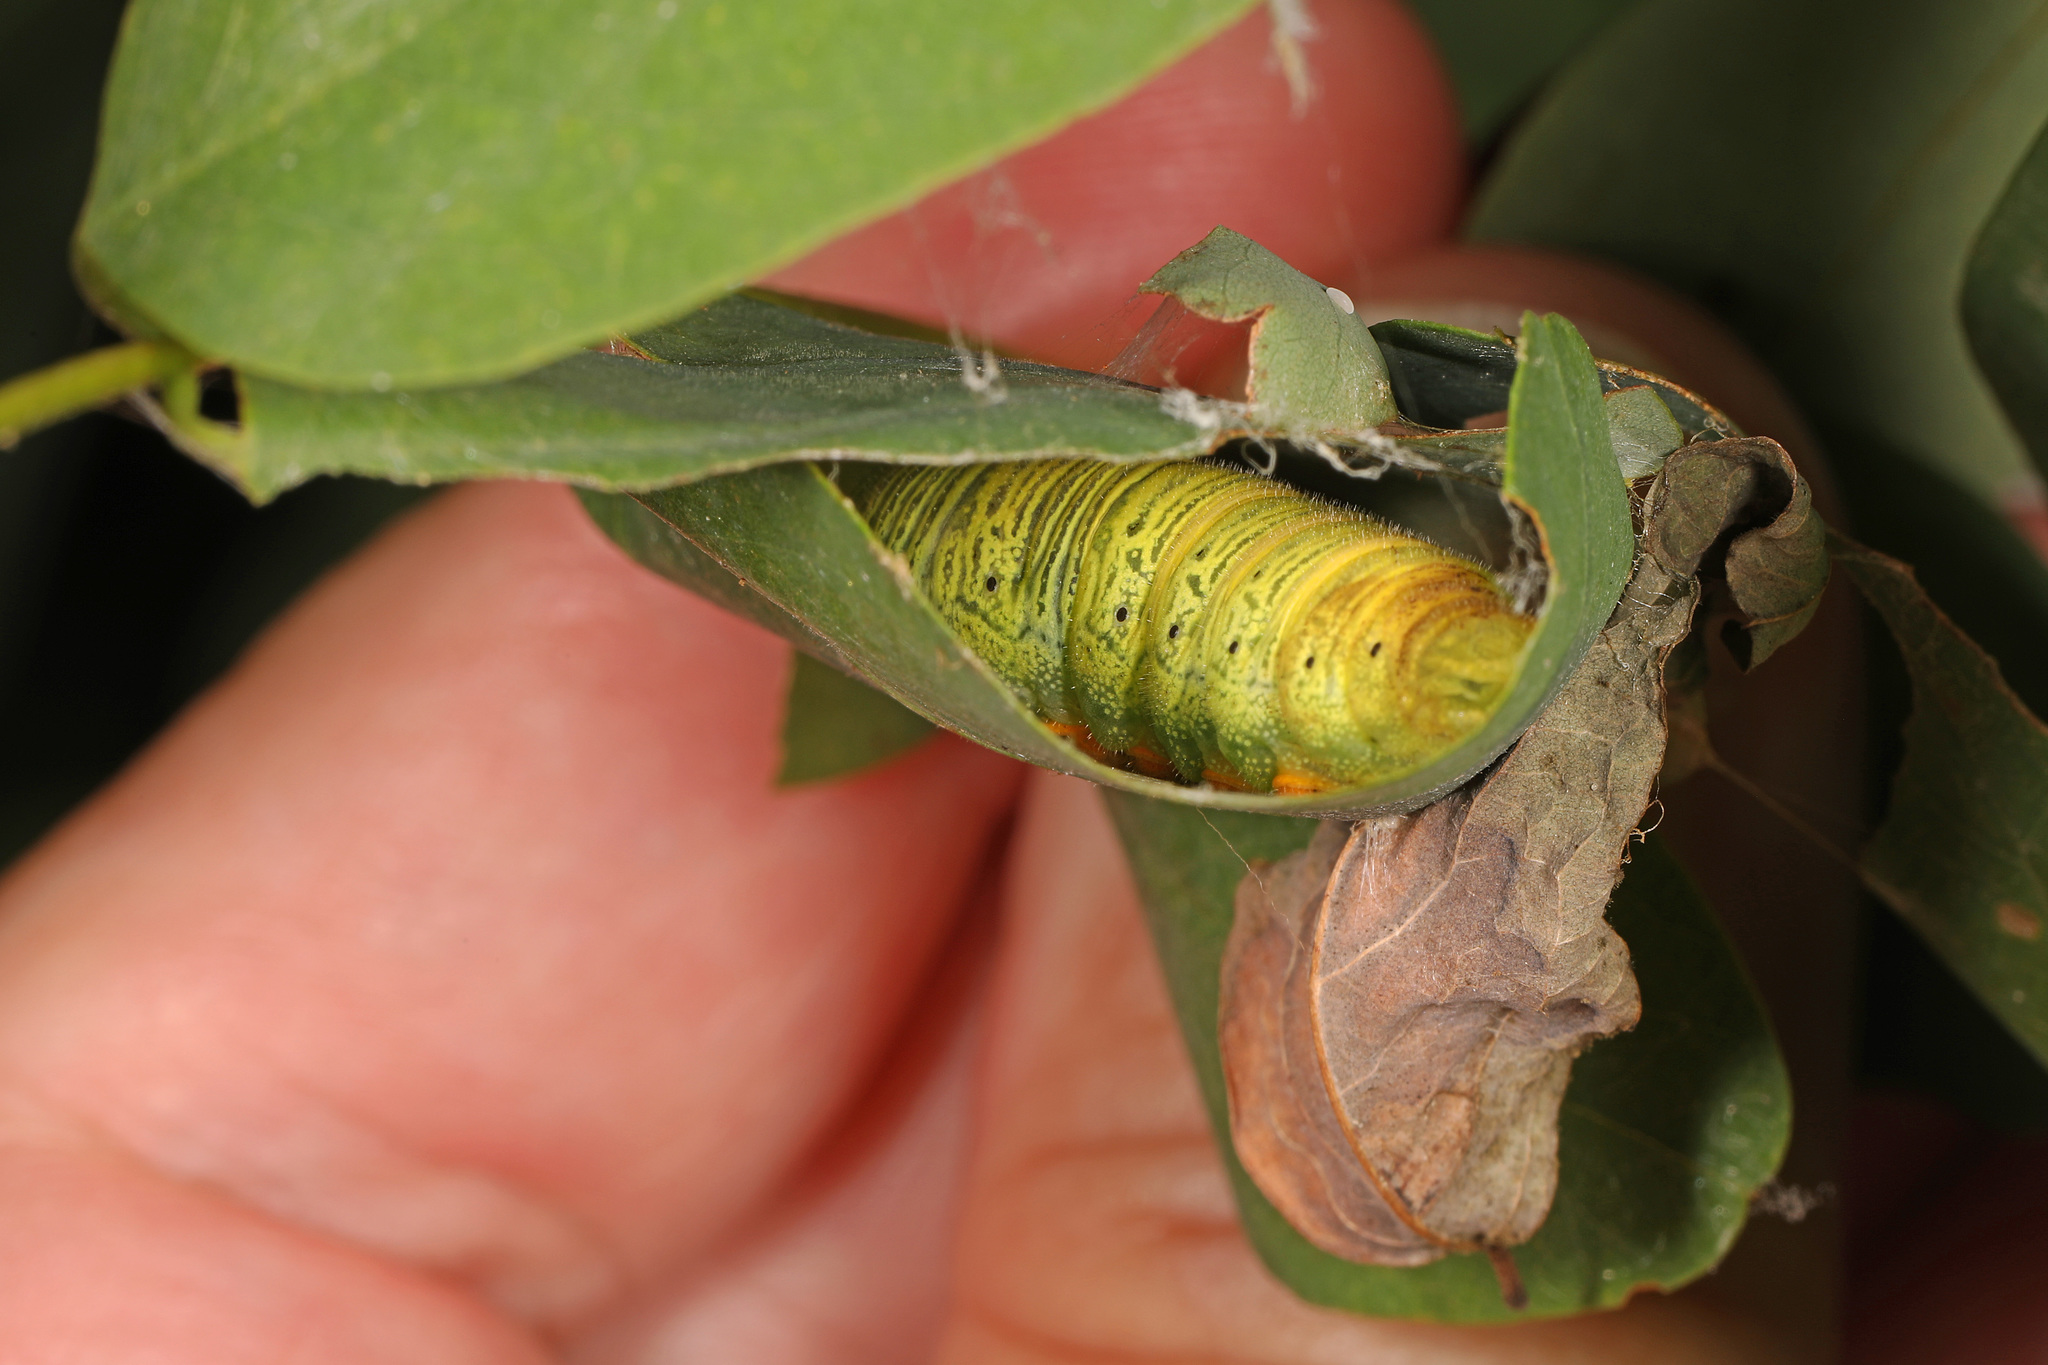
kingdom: Animalia
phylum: Arthropoda
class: Insecta
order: Lepidoptera
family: Hesperiidae
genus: Epargyreus
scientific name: Epargyreus clarus
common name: Silver-spotted skipper
